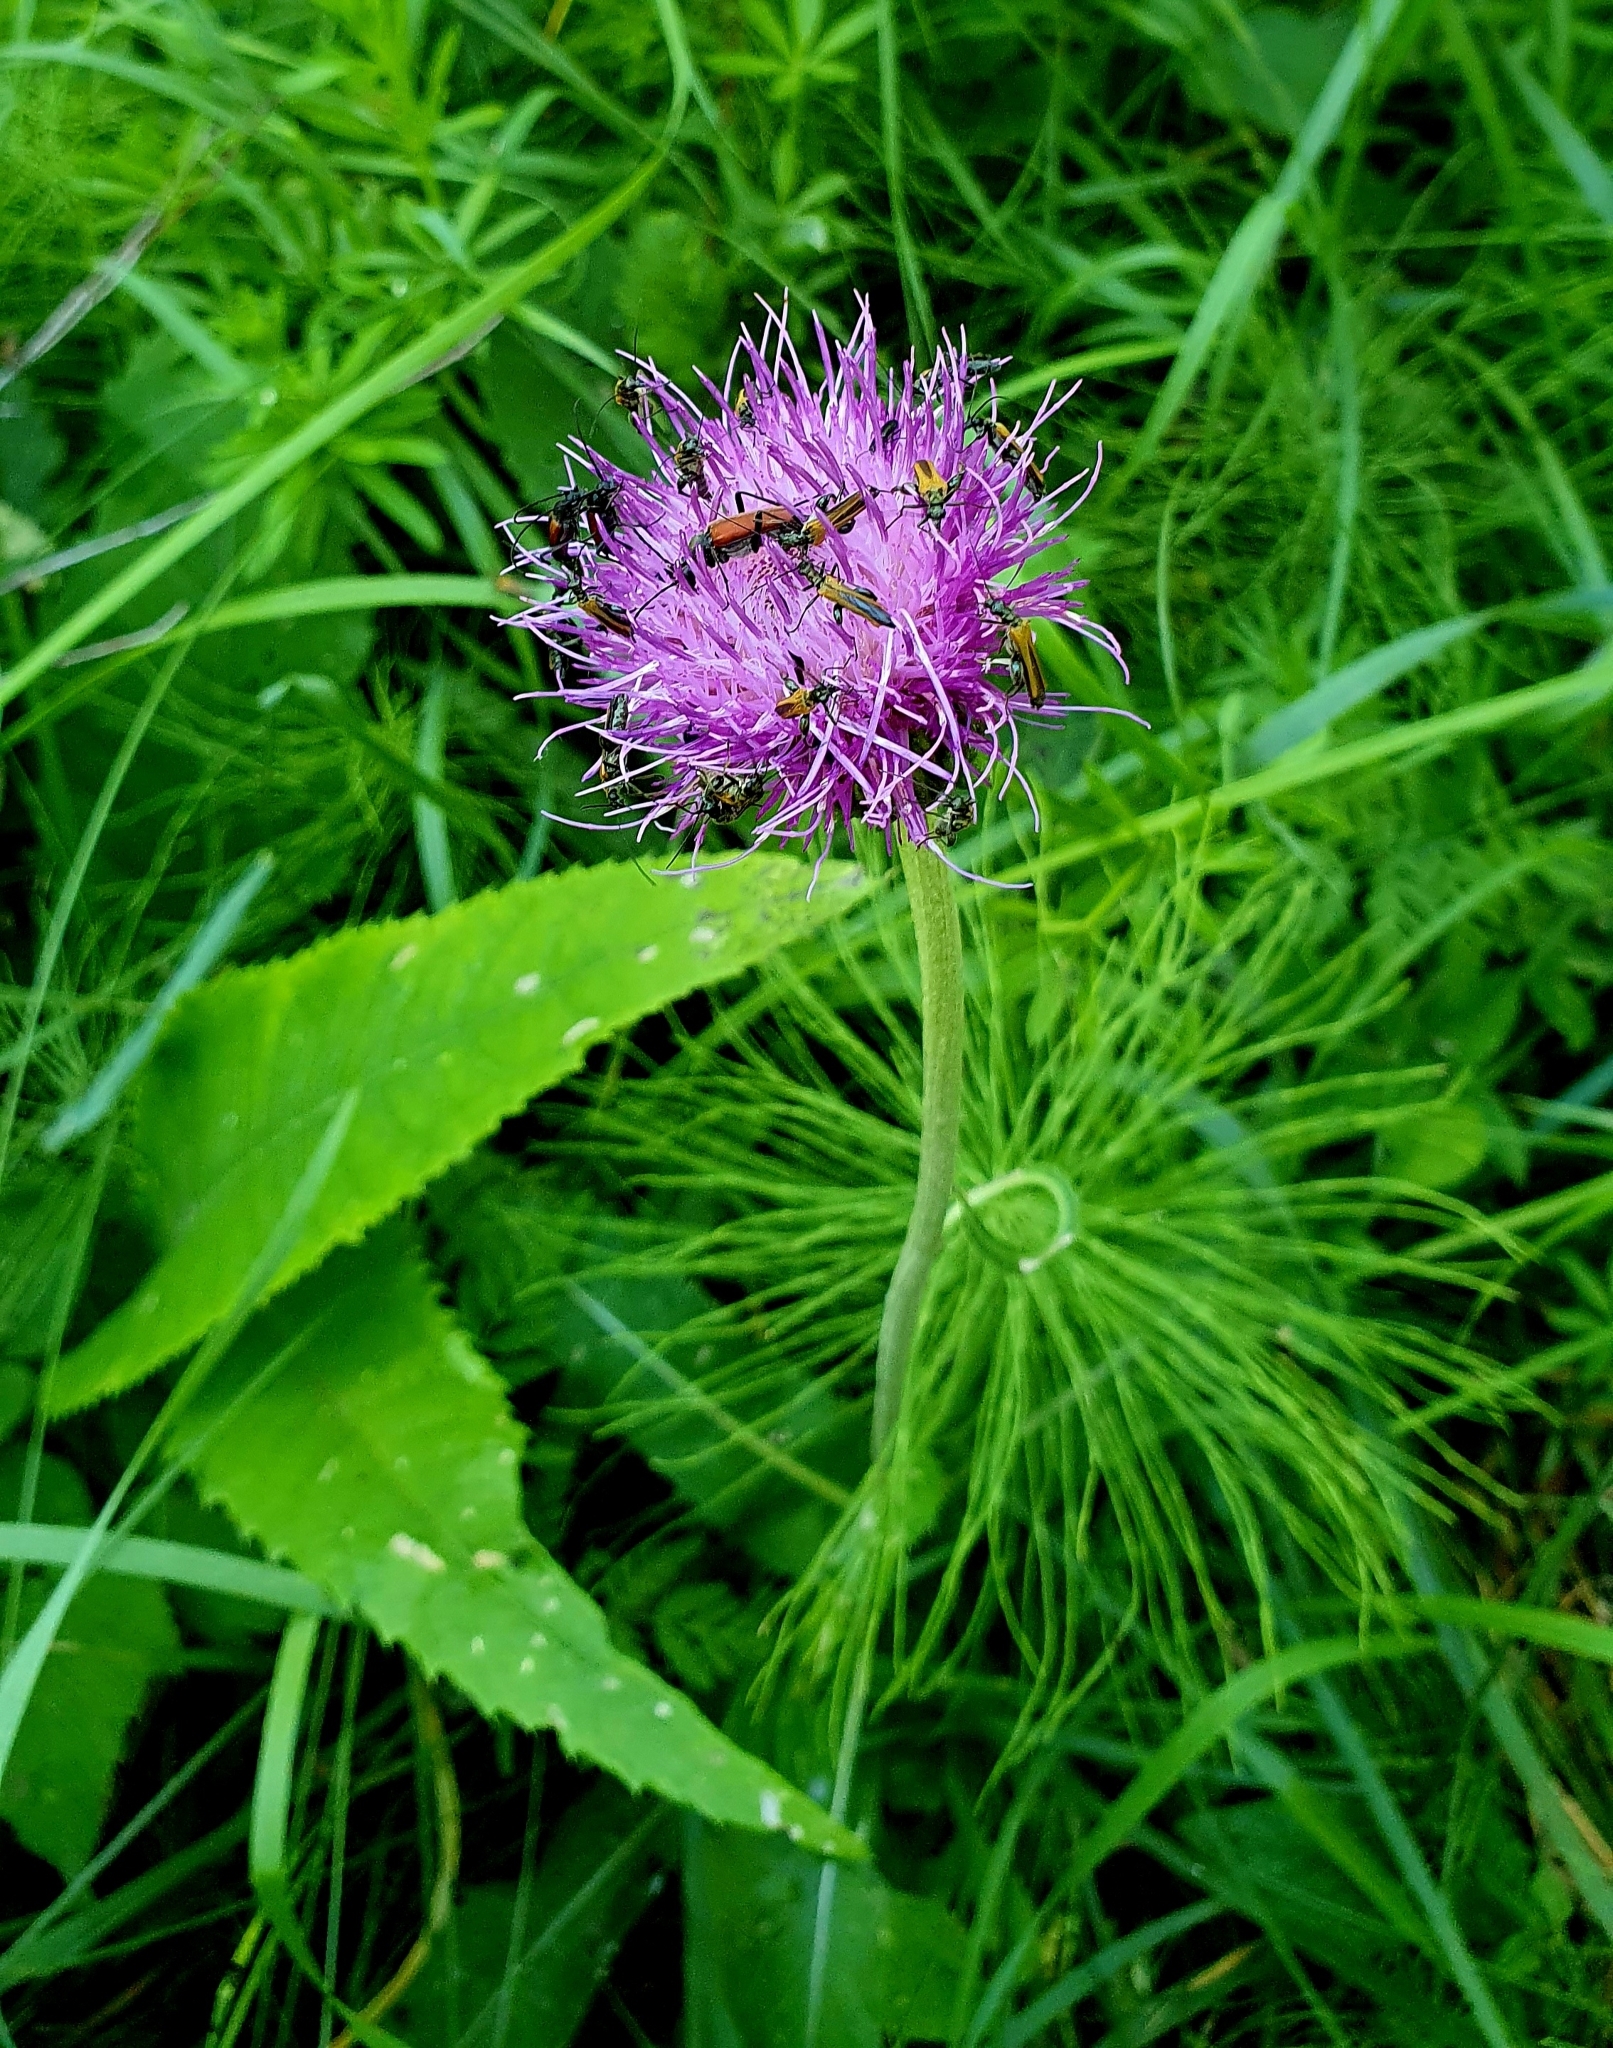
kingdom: Plantae
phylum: Tracheophyta
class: Magnoliopsida
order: Asterales
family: Asteraceae
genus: Cirsium
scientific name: Cirsium heterophyllum
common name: Melancholy thistle
